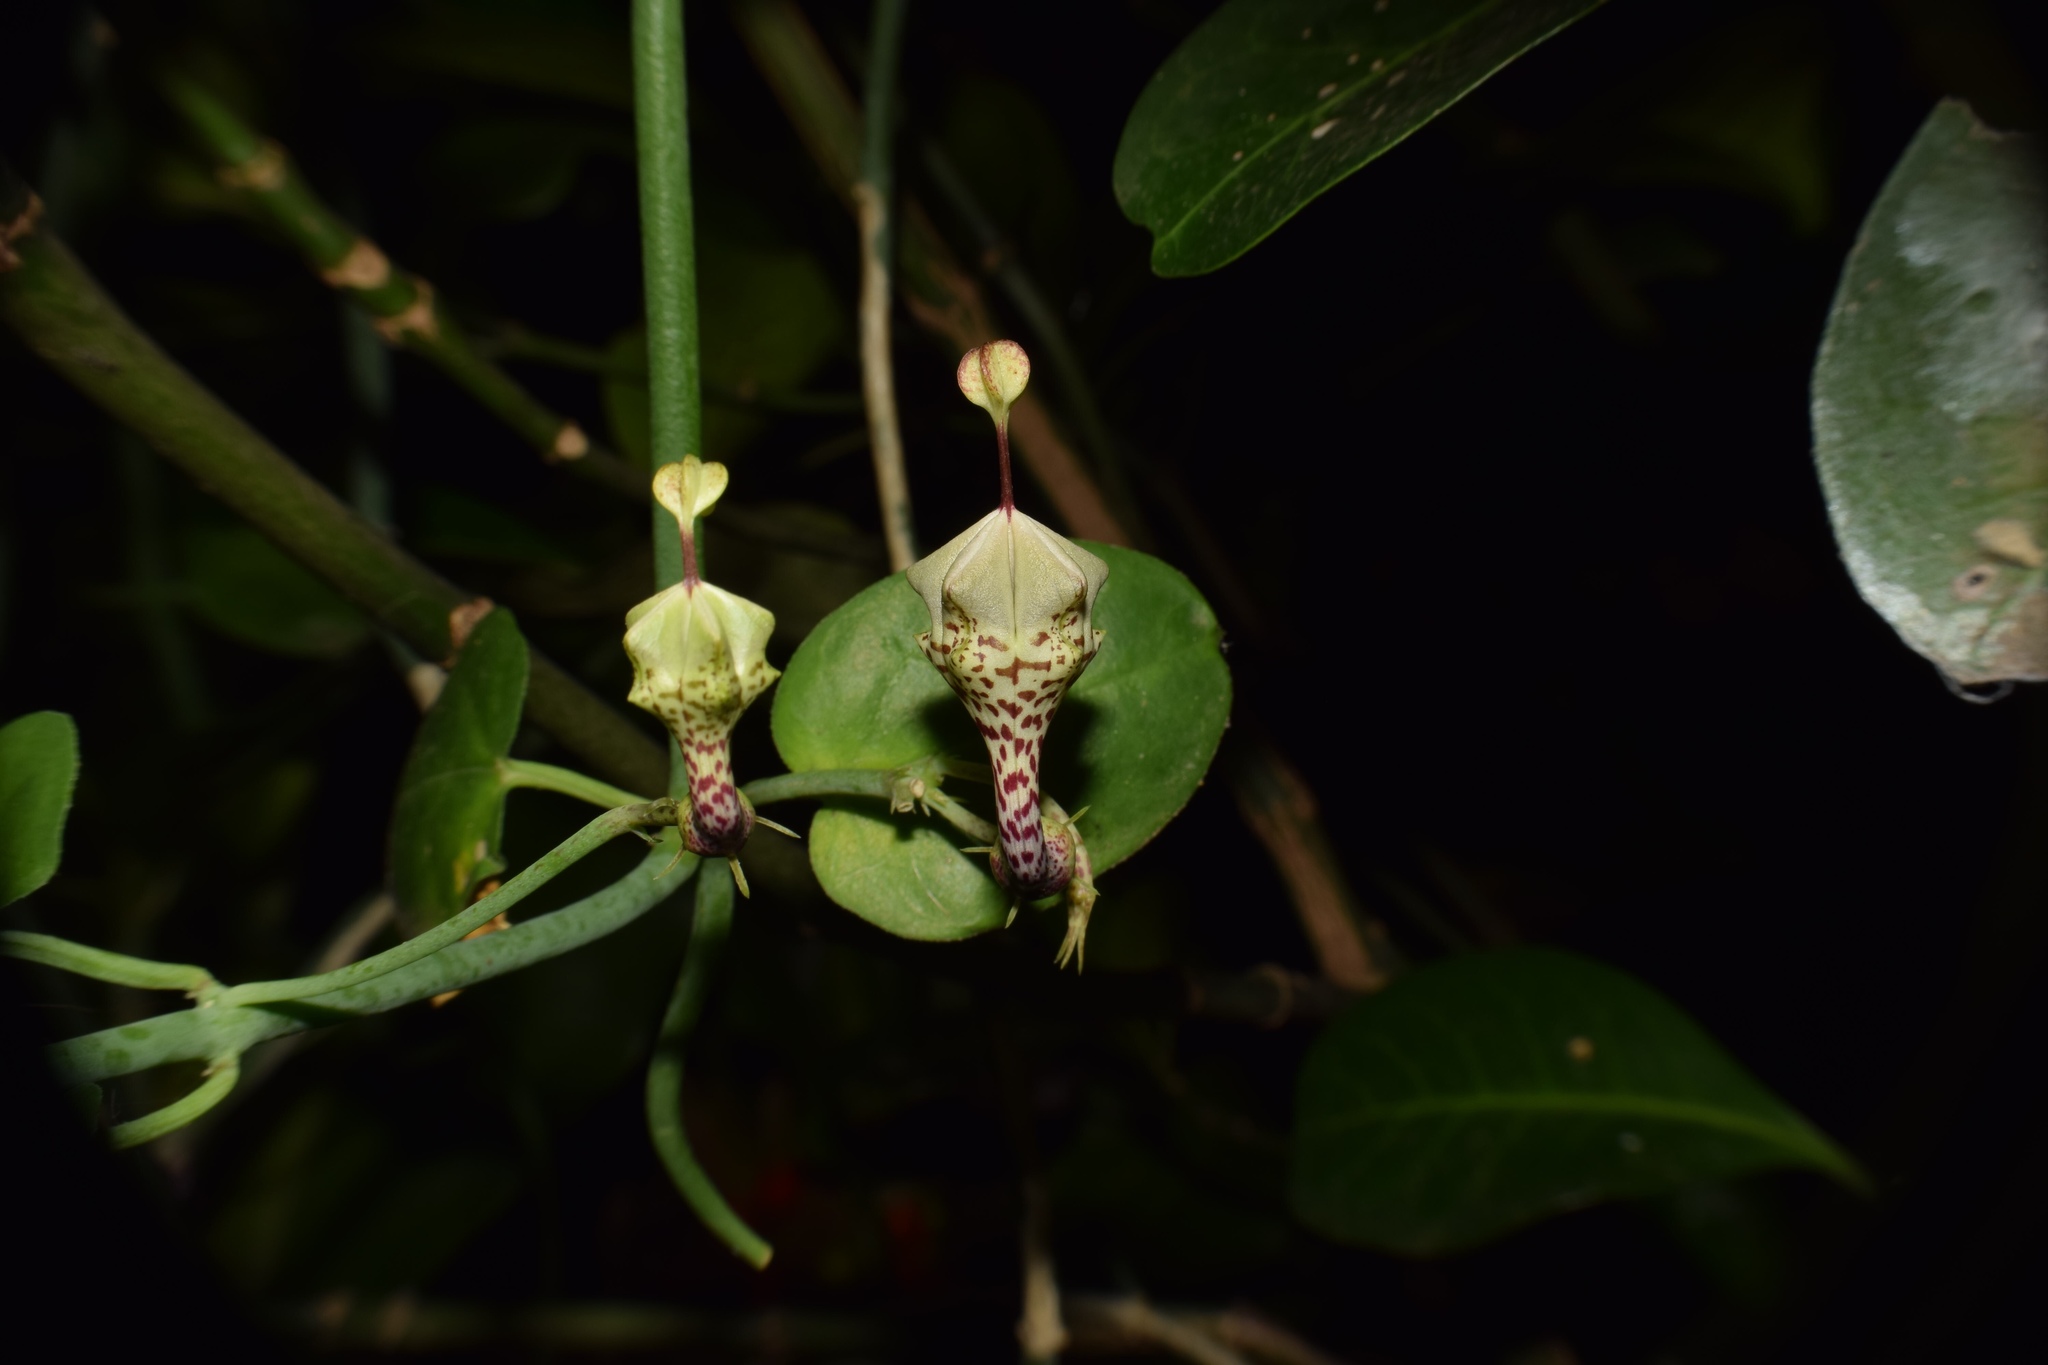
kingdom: Plantae
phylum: Tracheophyta
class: Magnoliopsida
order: Gentianales
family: Apocynaceae
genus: Ceropegia
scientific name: Ceropegia distincta
